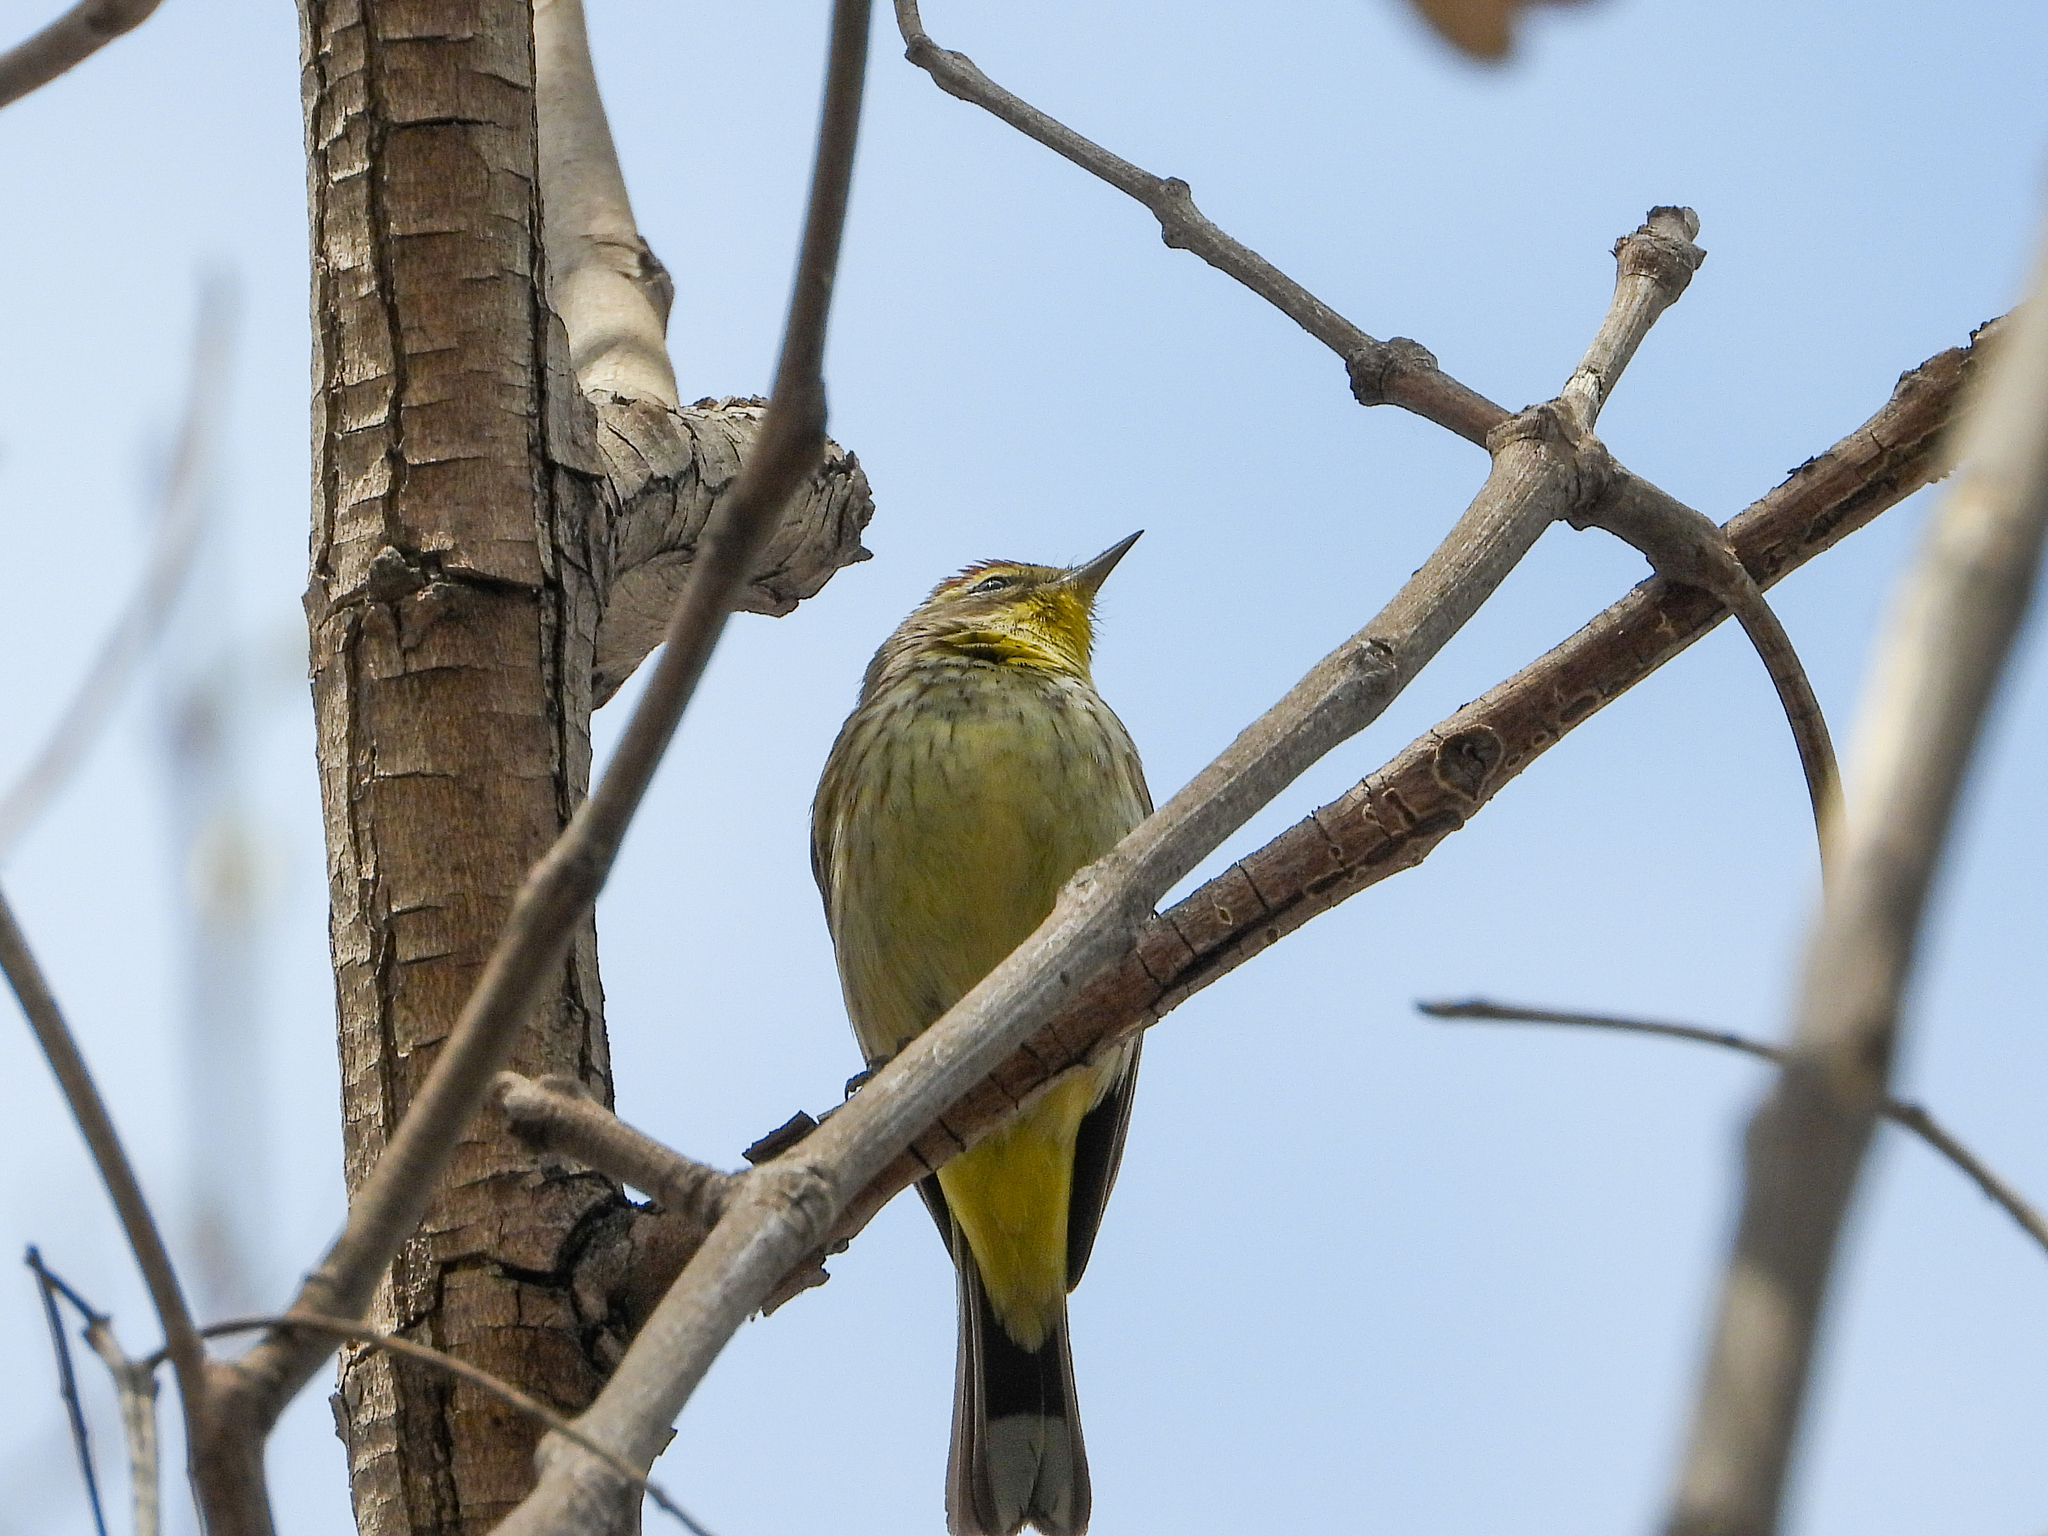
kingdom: Animalia
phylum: Chordata
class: Aves
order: Passeriformes
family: Parulidae
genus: Setophaga
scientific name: Setophaga palmarum
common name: Palm warbler
